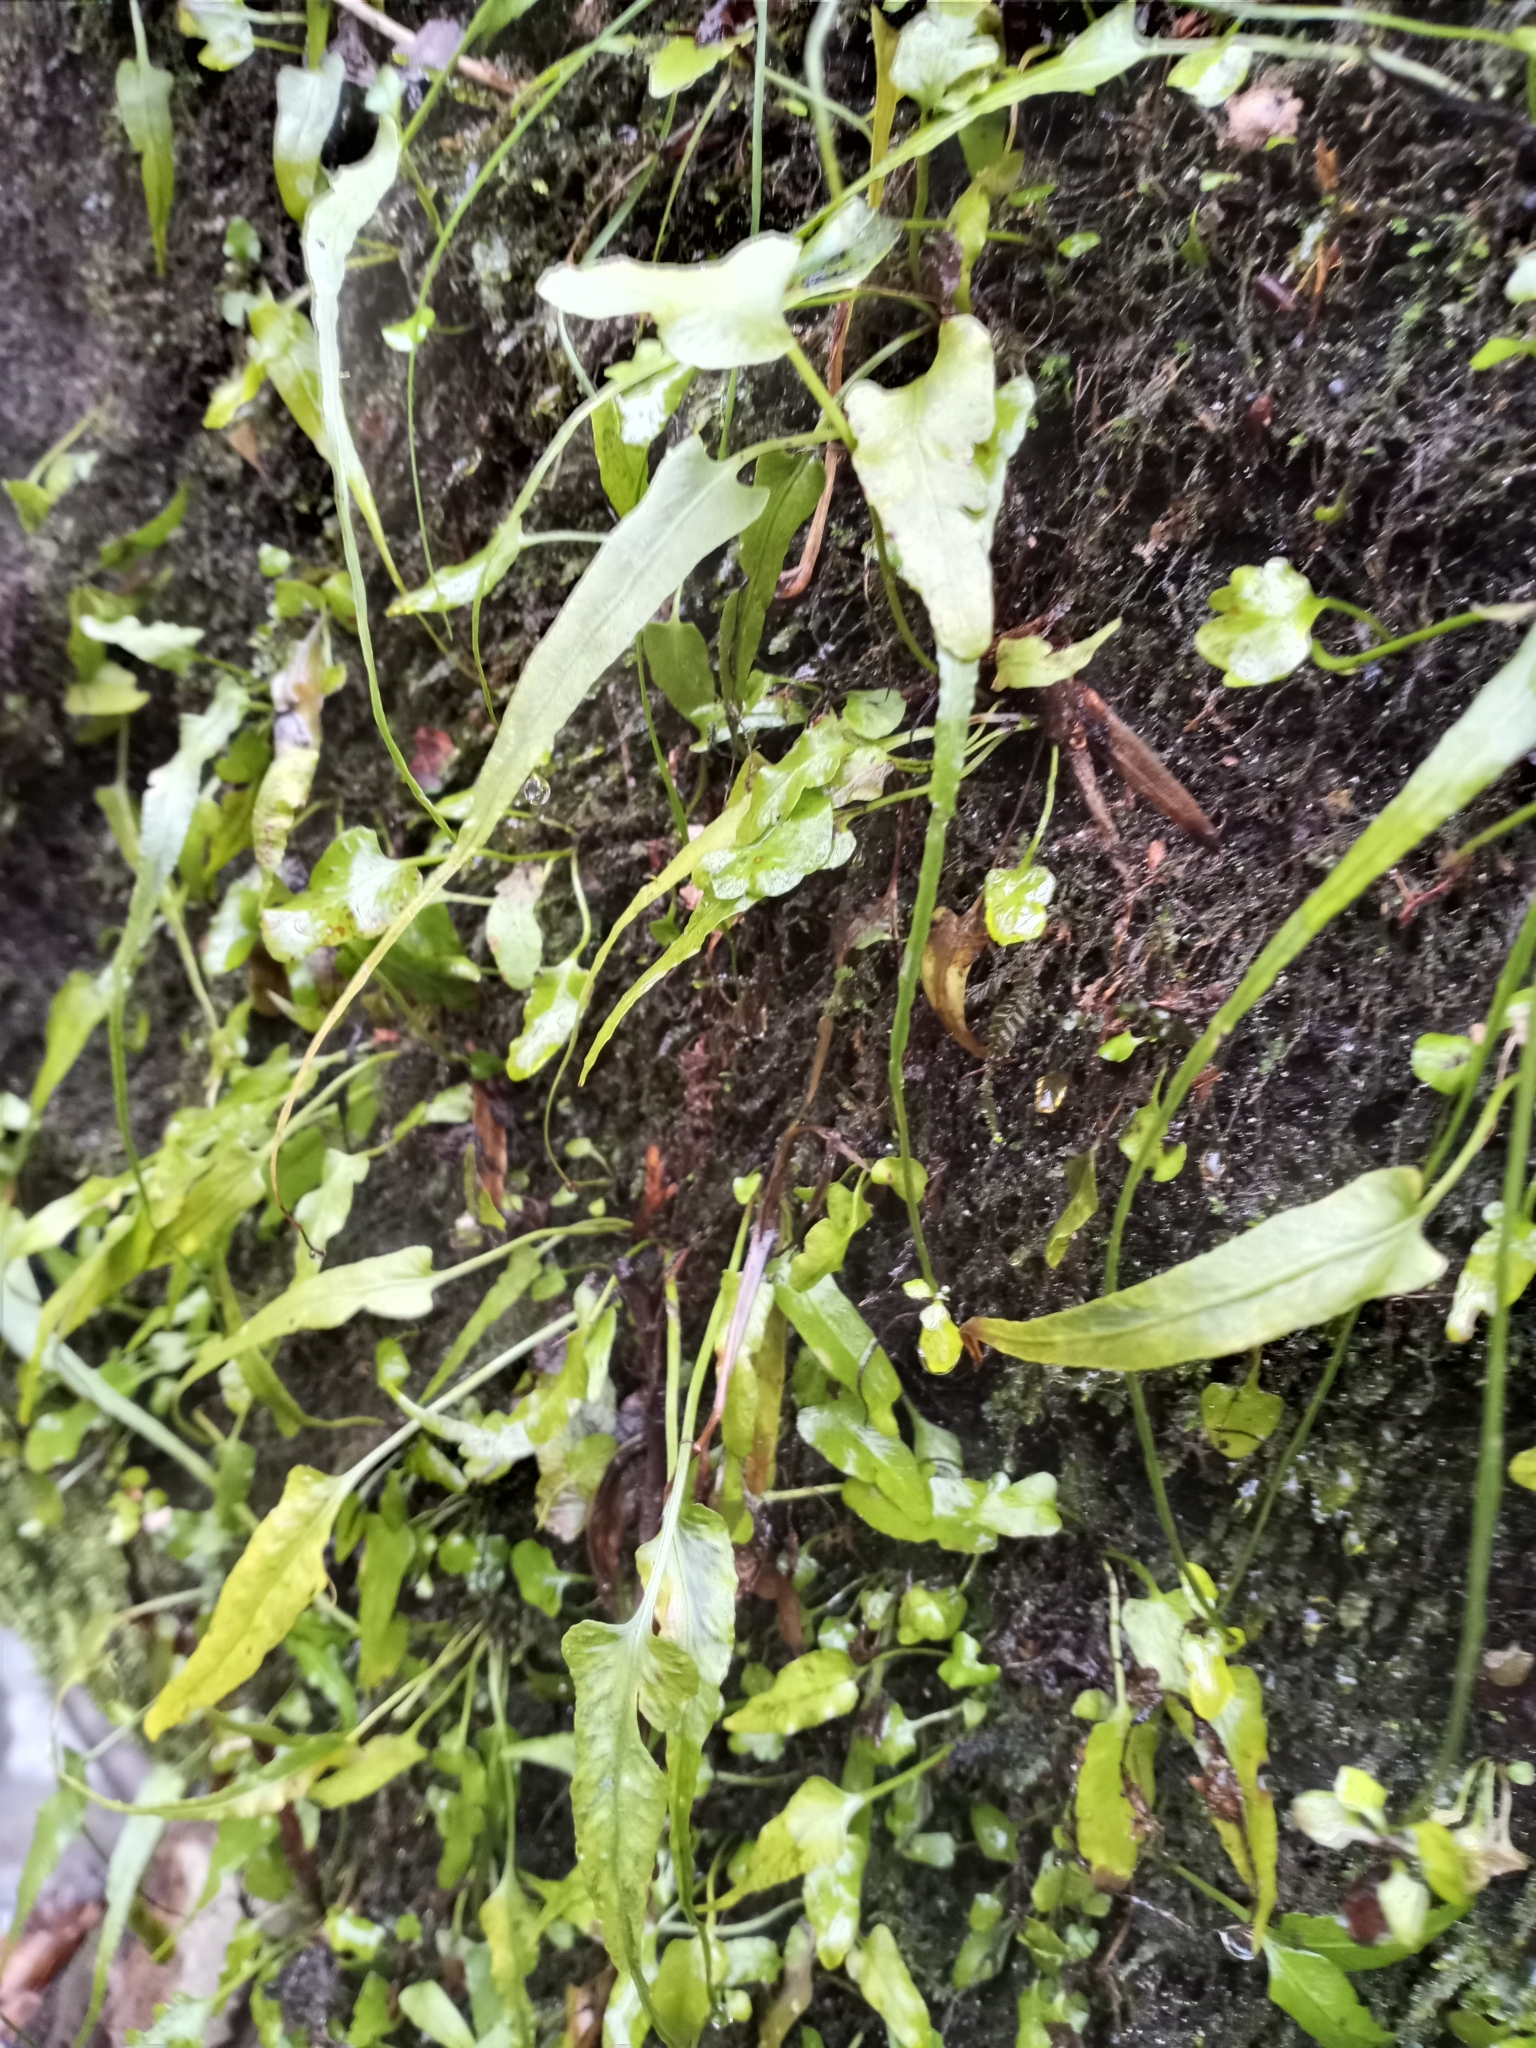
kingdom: Plantae
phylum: Tracheophyta
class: Polypodiopsida
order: Polypodiales
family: Aspleniaceae
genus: Asplenium
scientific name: Asplenium rhizophyllum
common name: Walking fern
